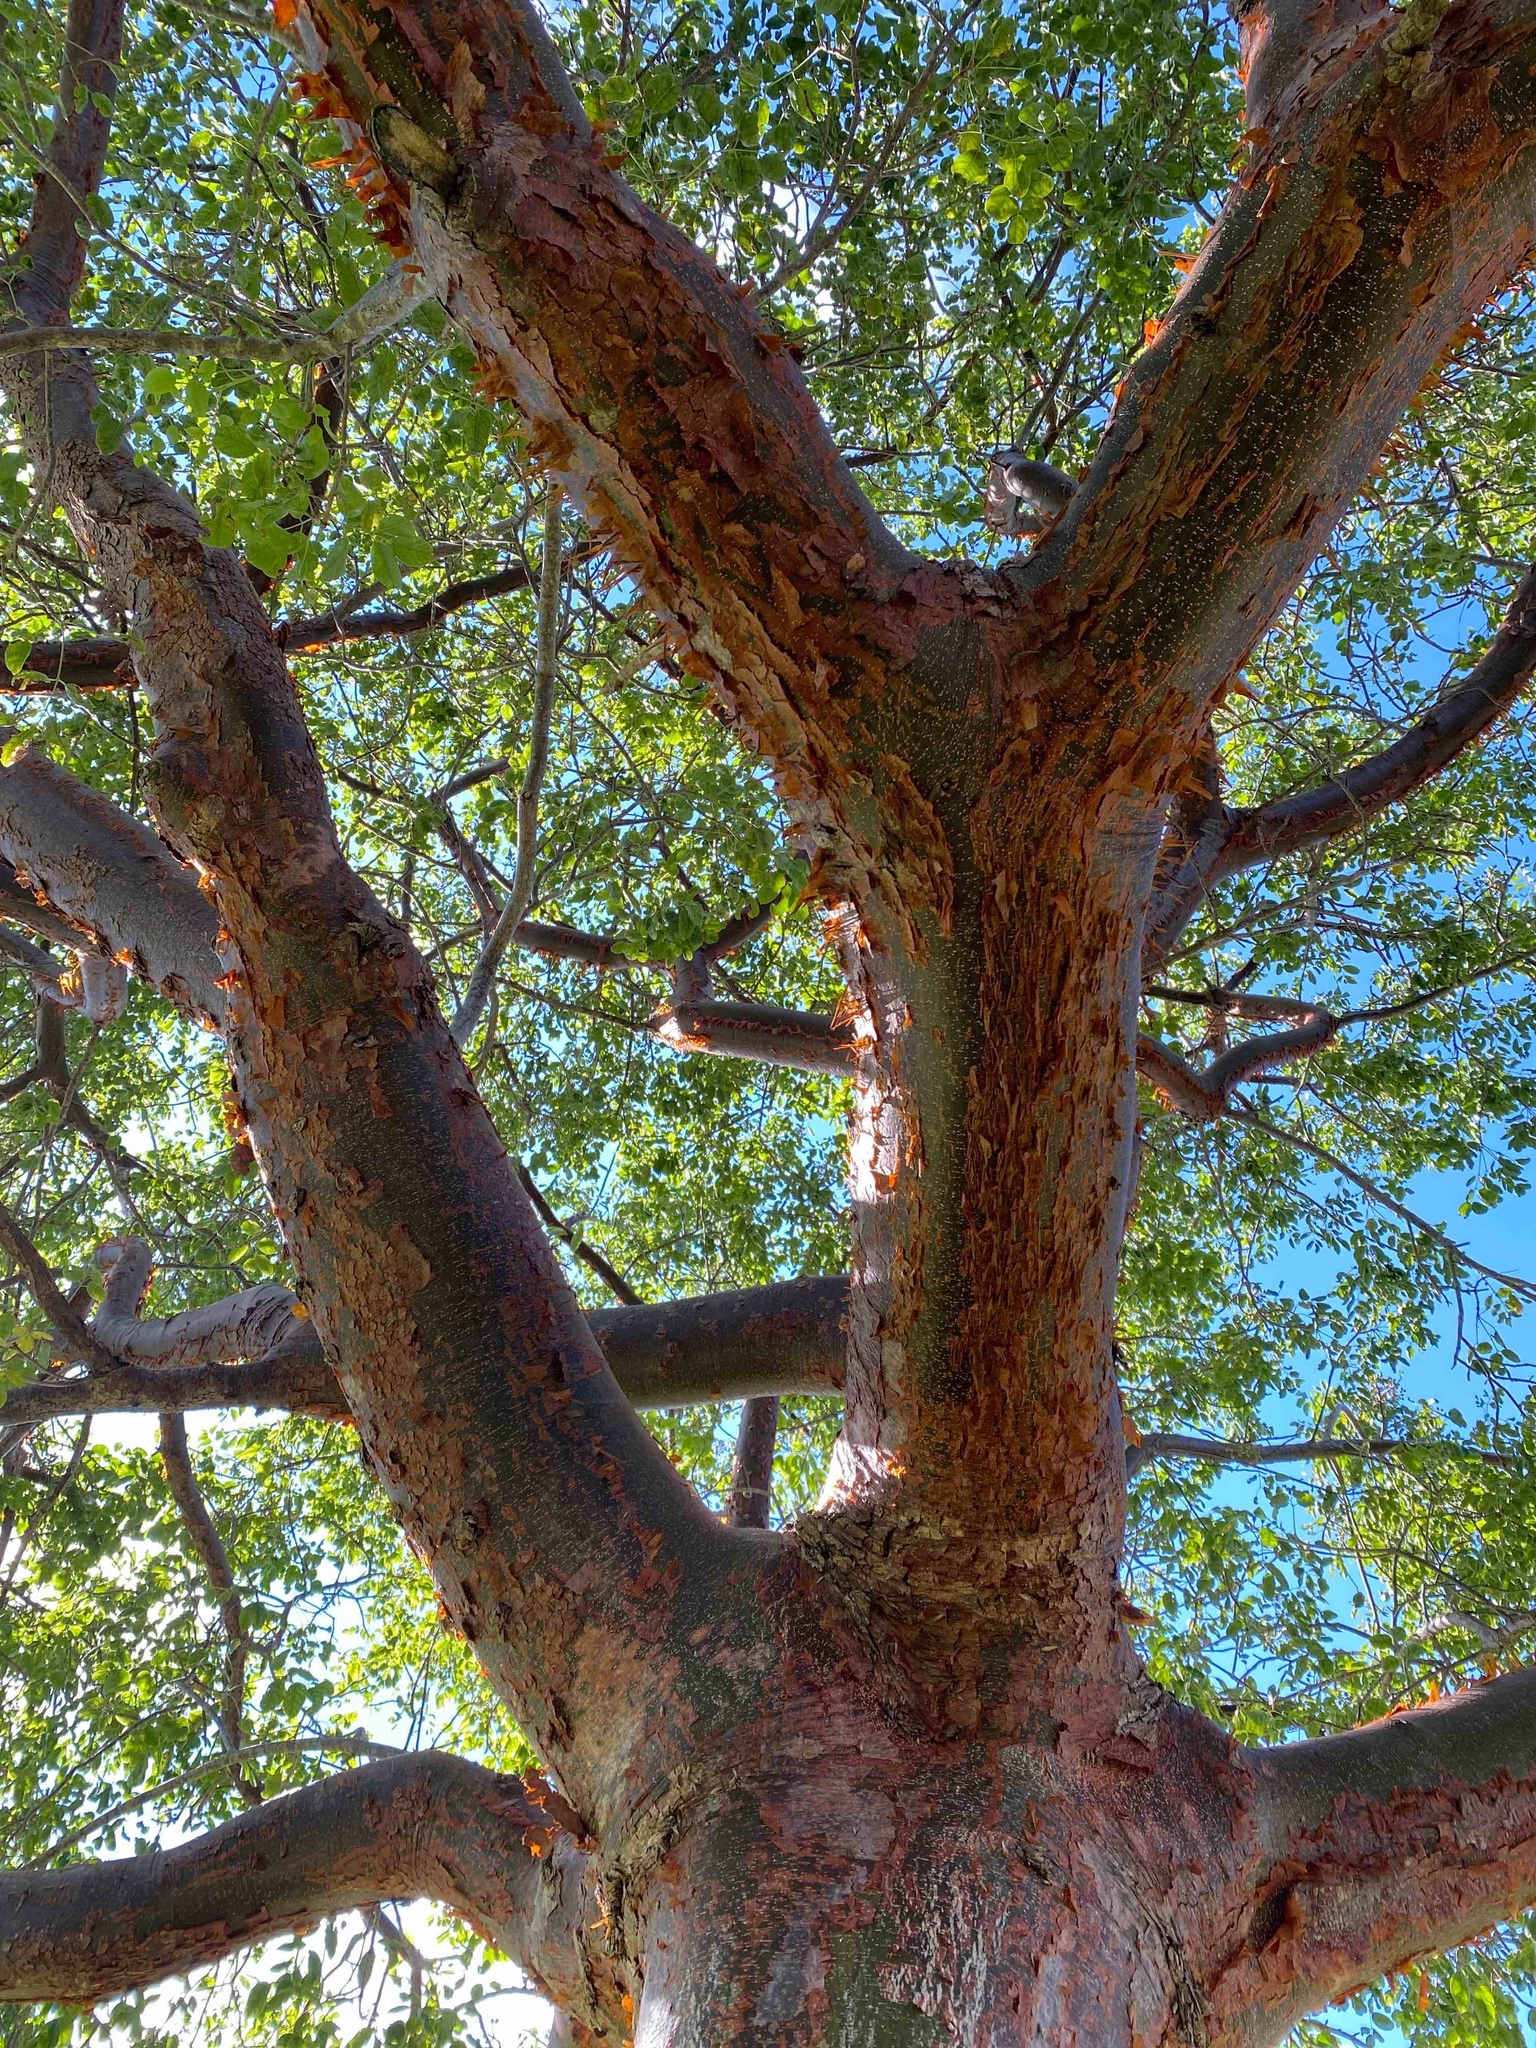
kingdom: Plantae
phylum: Tracheophyta
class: Magnoliopsida
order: Sapindales
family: Burseraceae
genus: Bursera
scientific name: Bursera simaruba
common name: Turpentine tree
